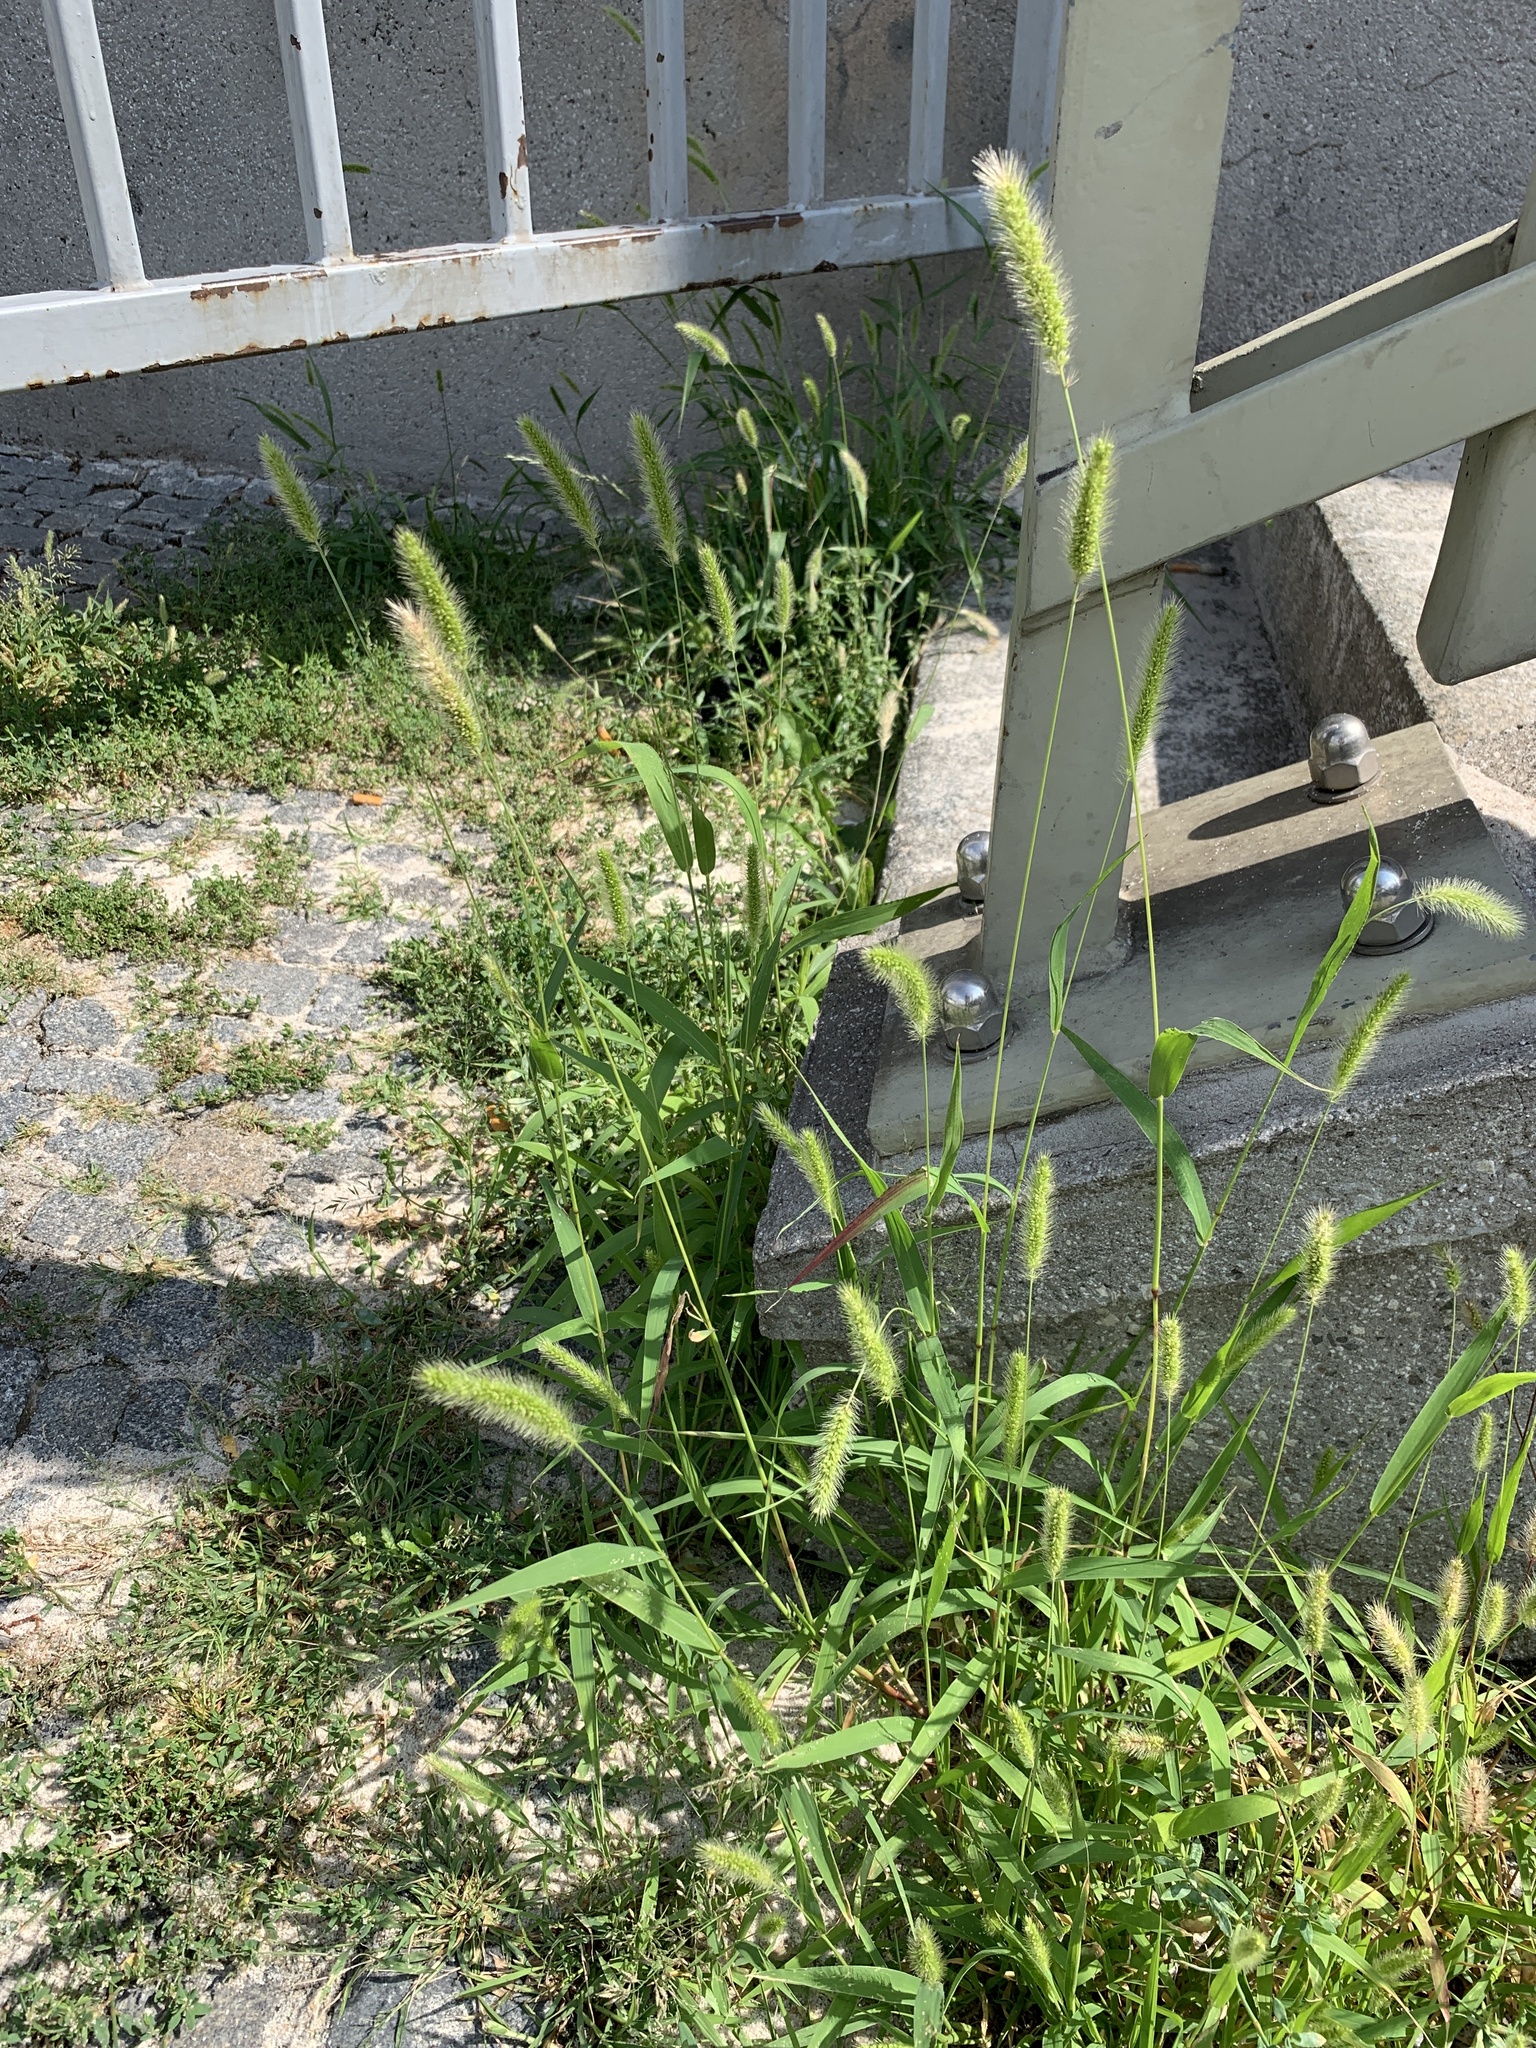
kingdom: Plantae
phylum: Tracheophyta
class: Liliopsida
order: Poales
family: Poaceae
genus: Setaria
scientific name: Setaria viridis
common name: Green bristlegrass
